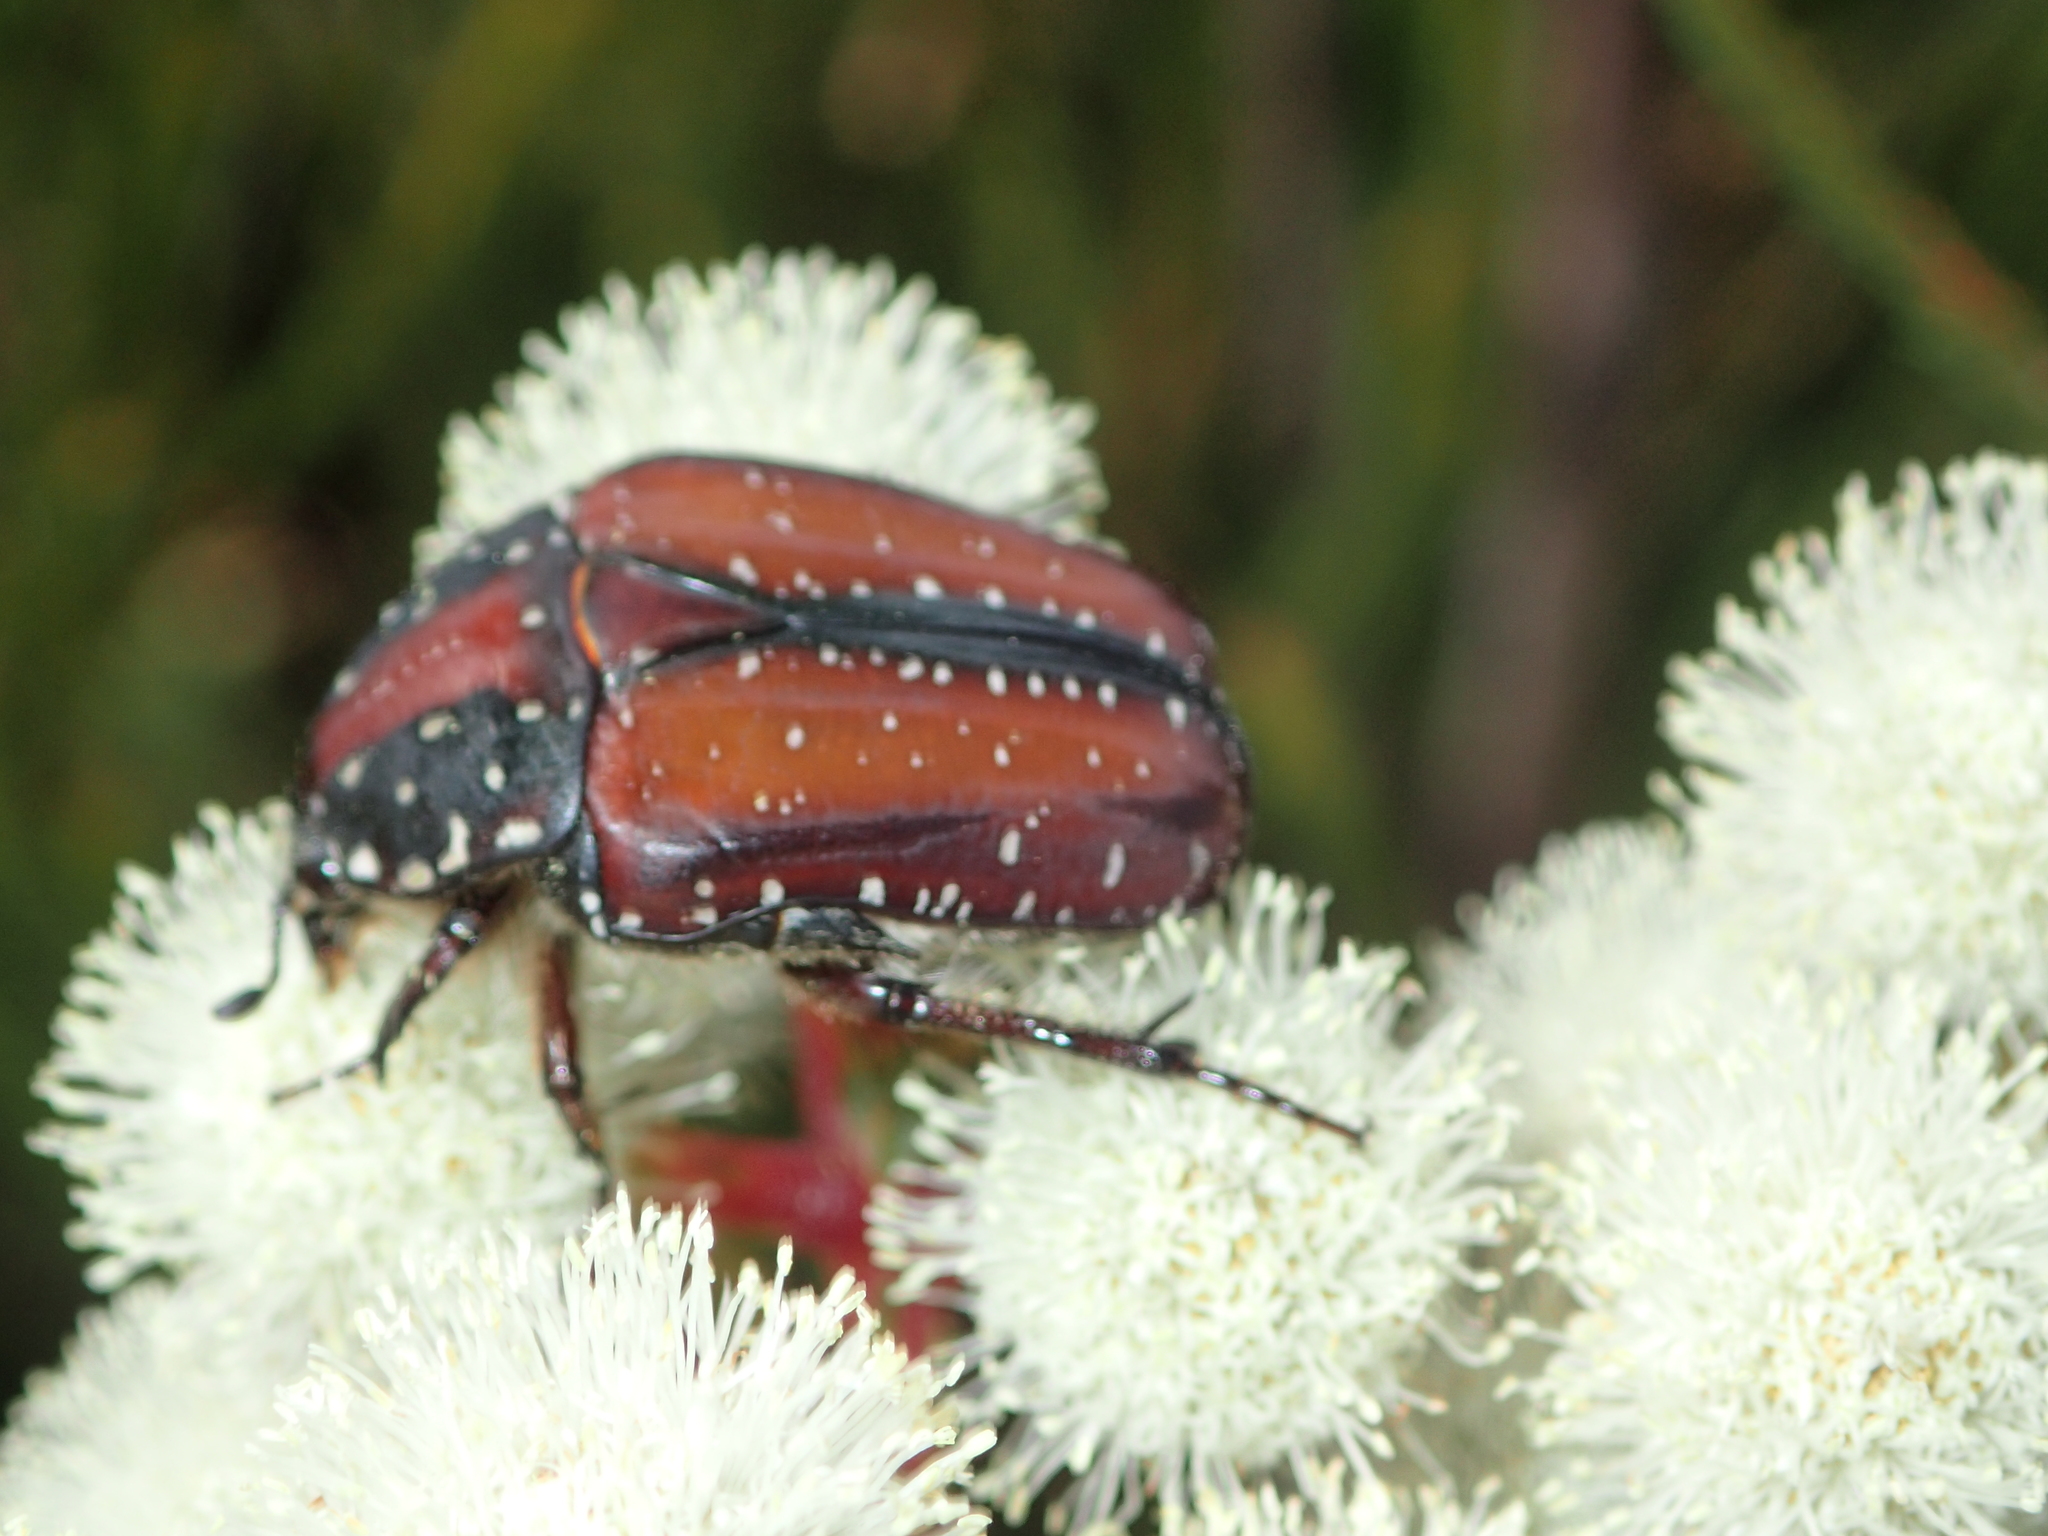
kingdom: Animalia
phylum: Arthropoda
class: Insecta
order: Coleoptera
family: Scarabaeidae
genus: Trichostetha
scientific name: Trichostetha capensis
